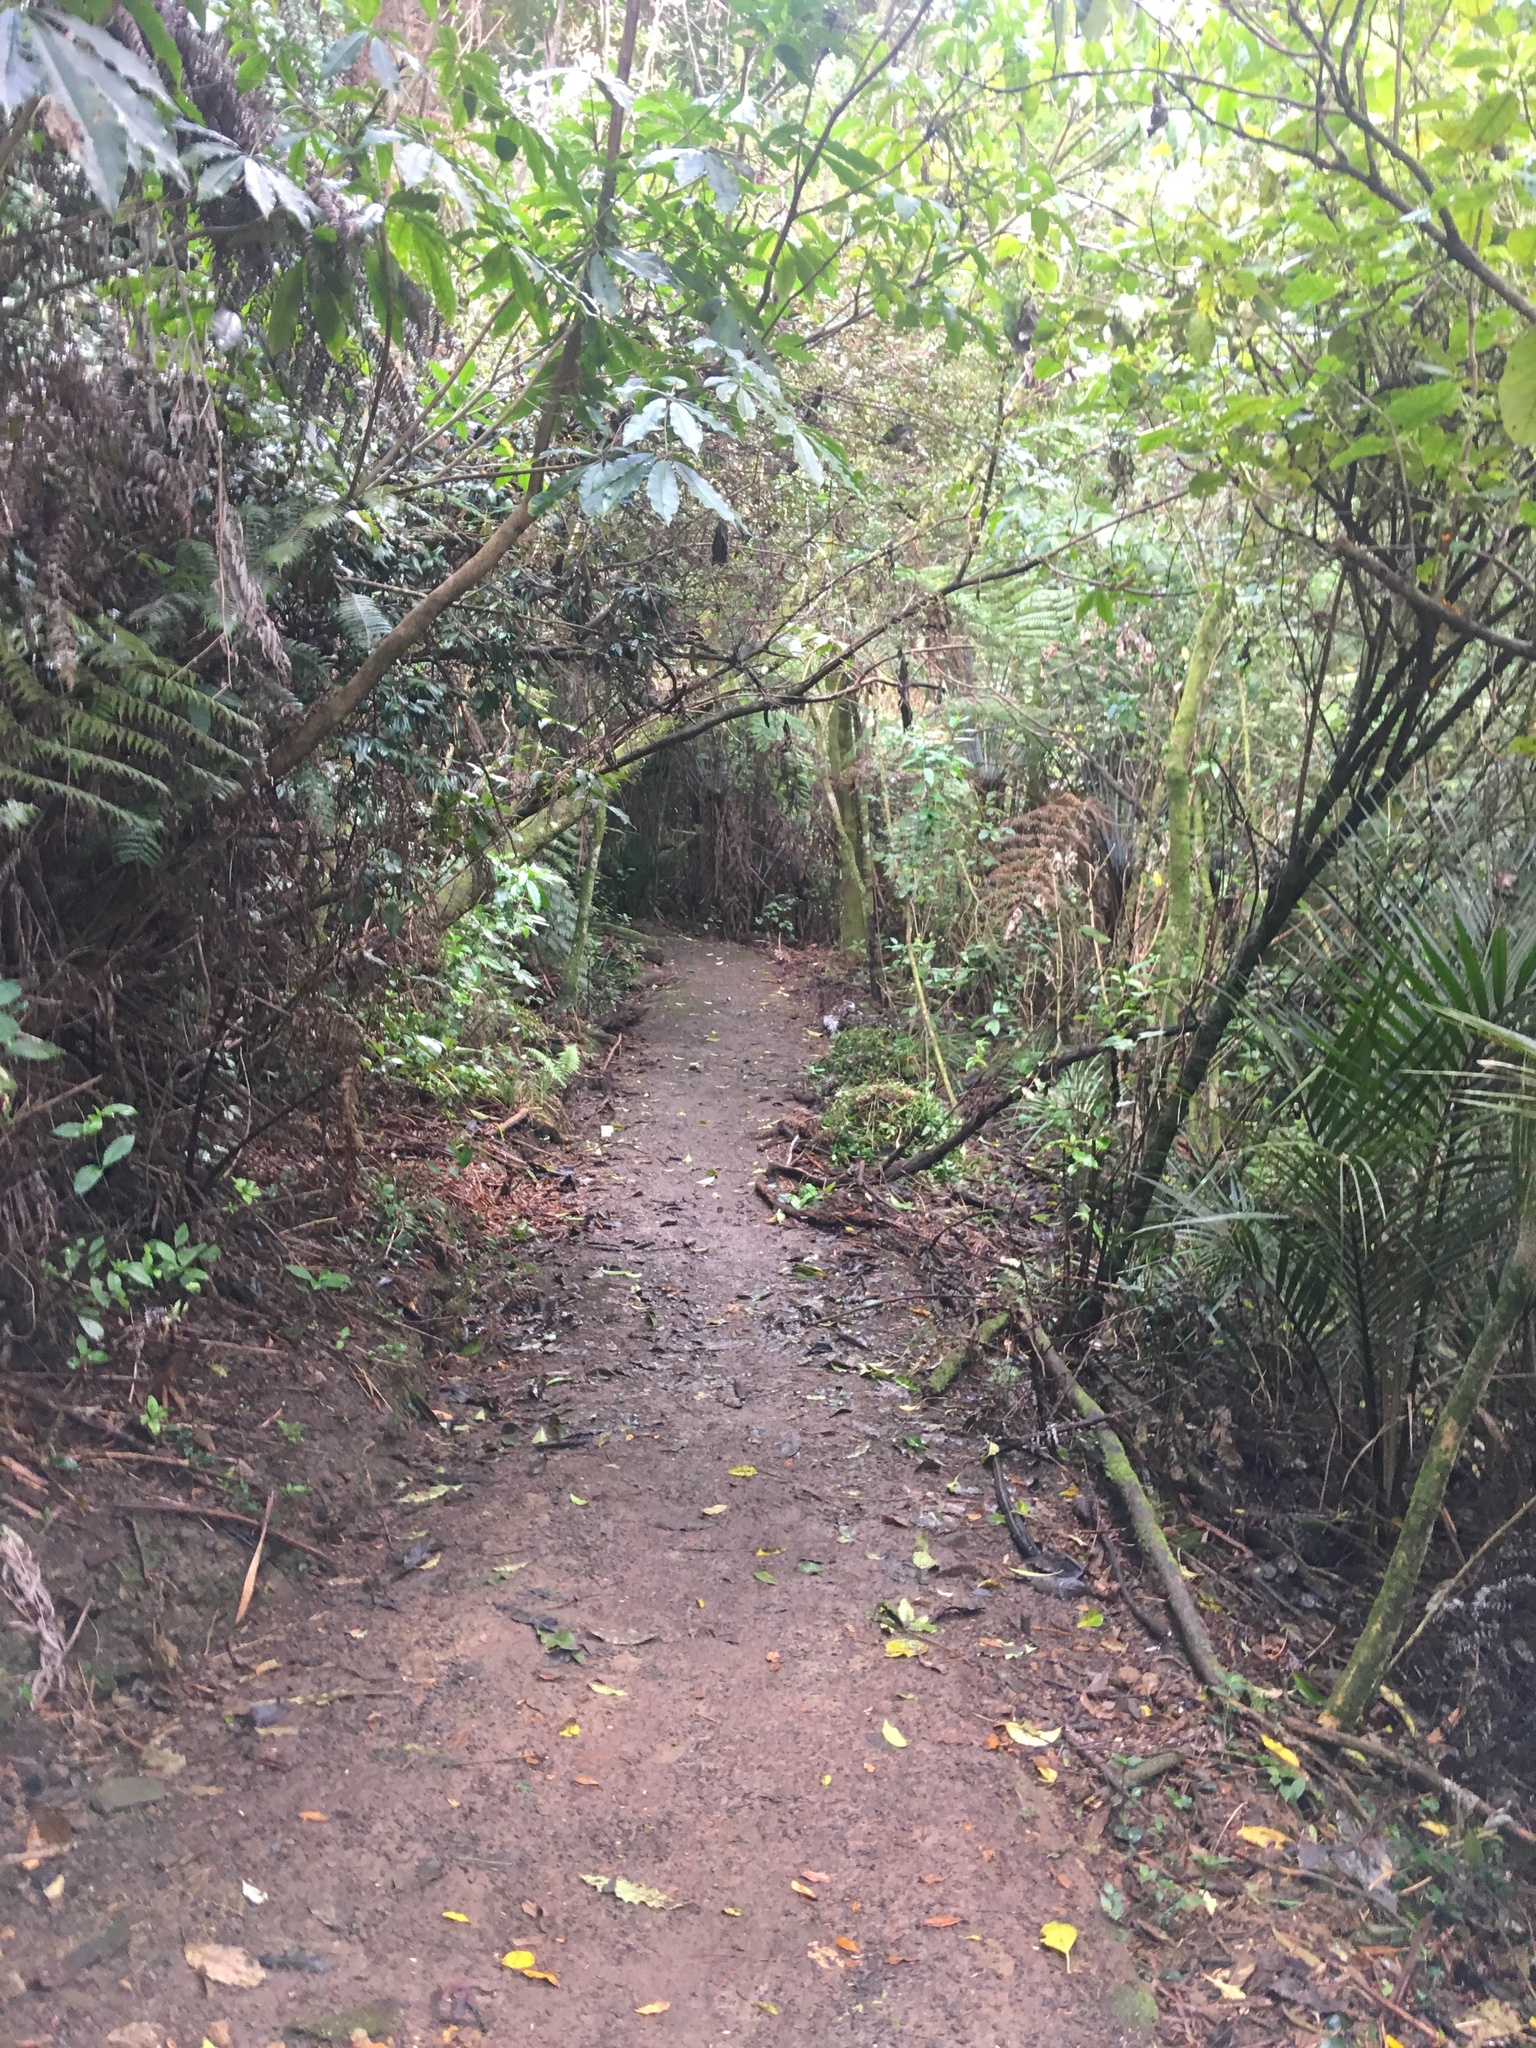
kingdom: Plantae
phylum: Tracheophyta
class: Magnoliopsida
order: Apiales
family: Araliaceae
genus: Schefflera
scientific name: Schefflera digitata
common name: Pate
